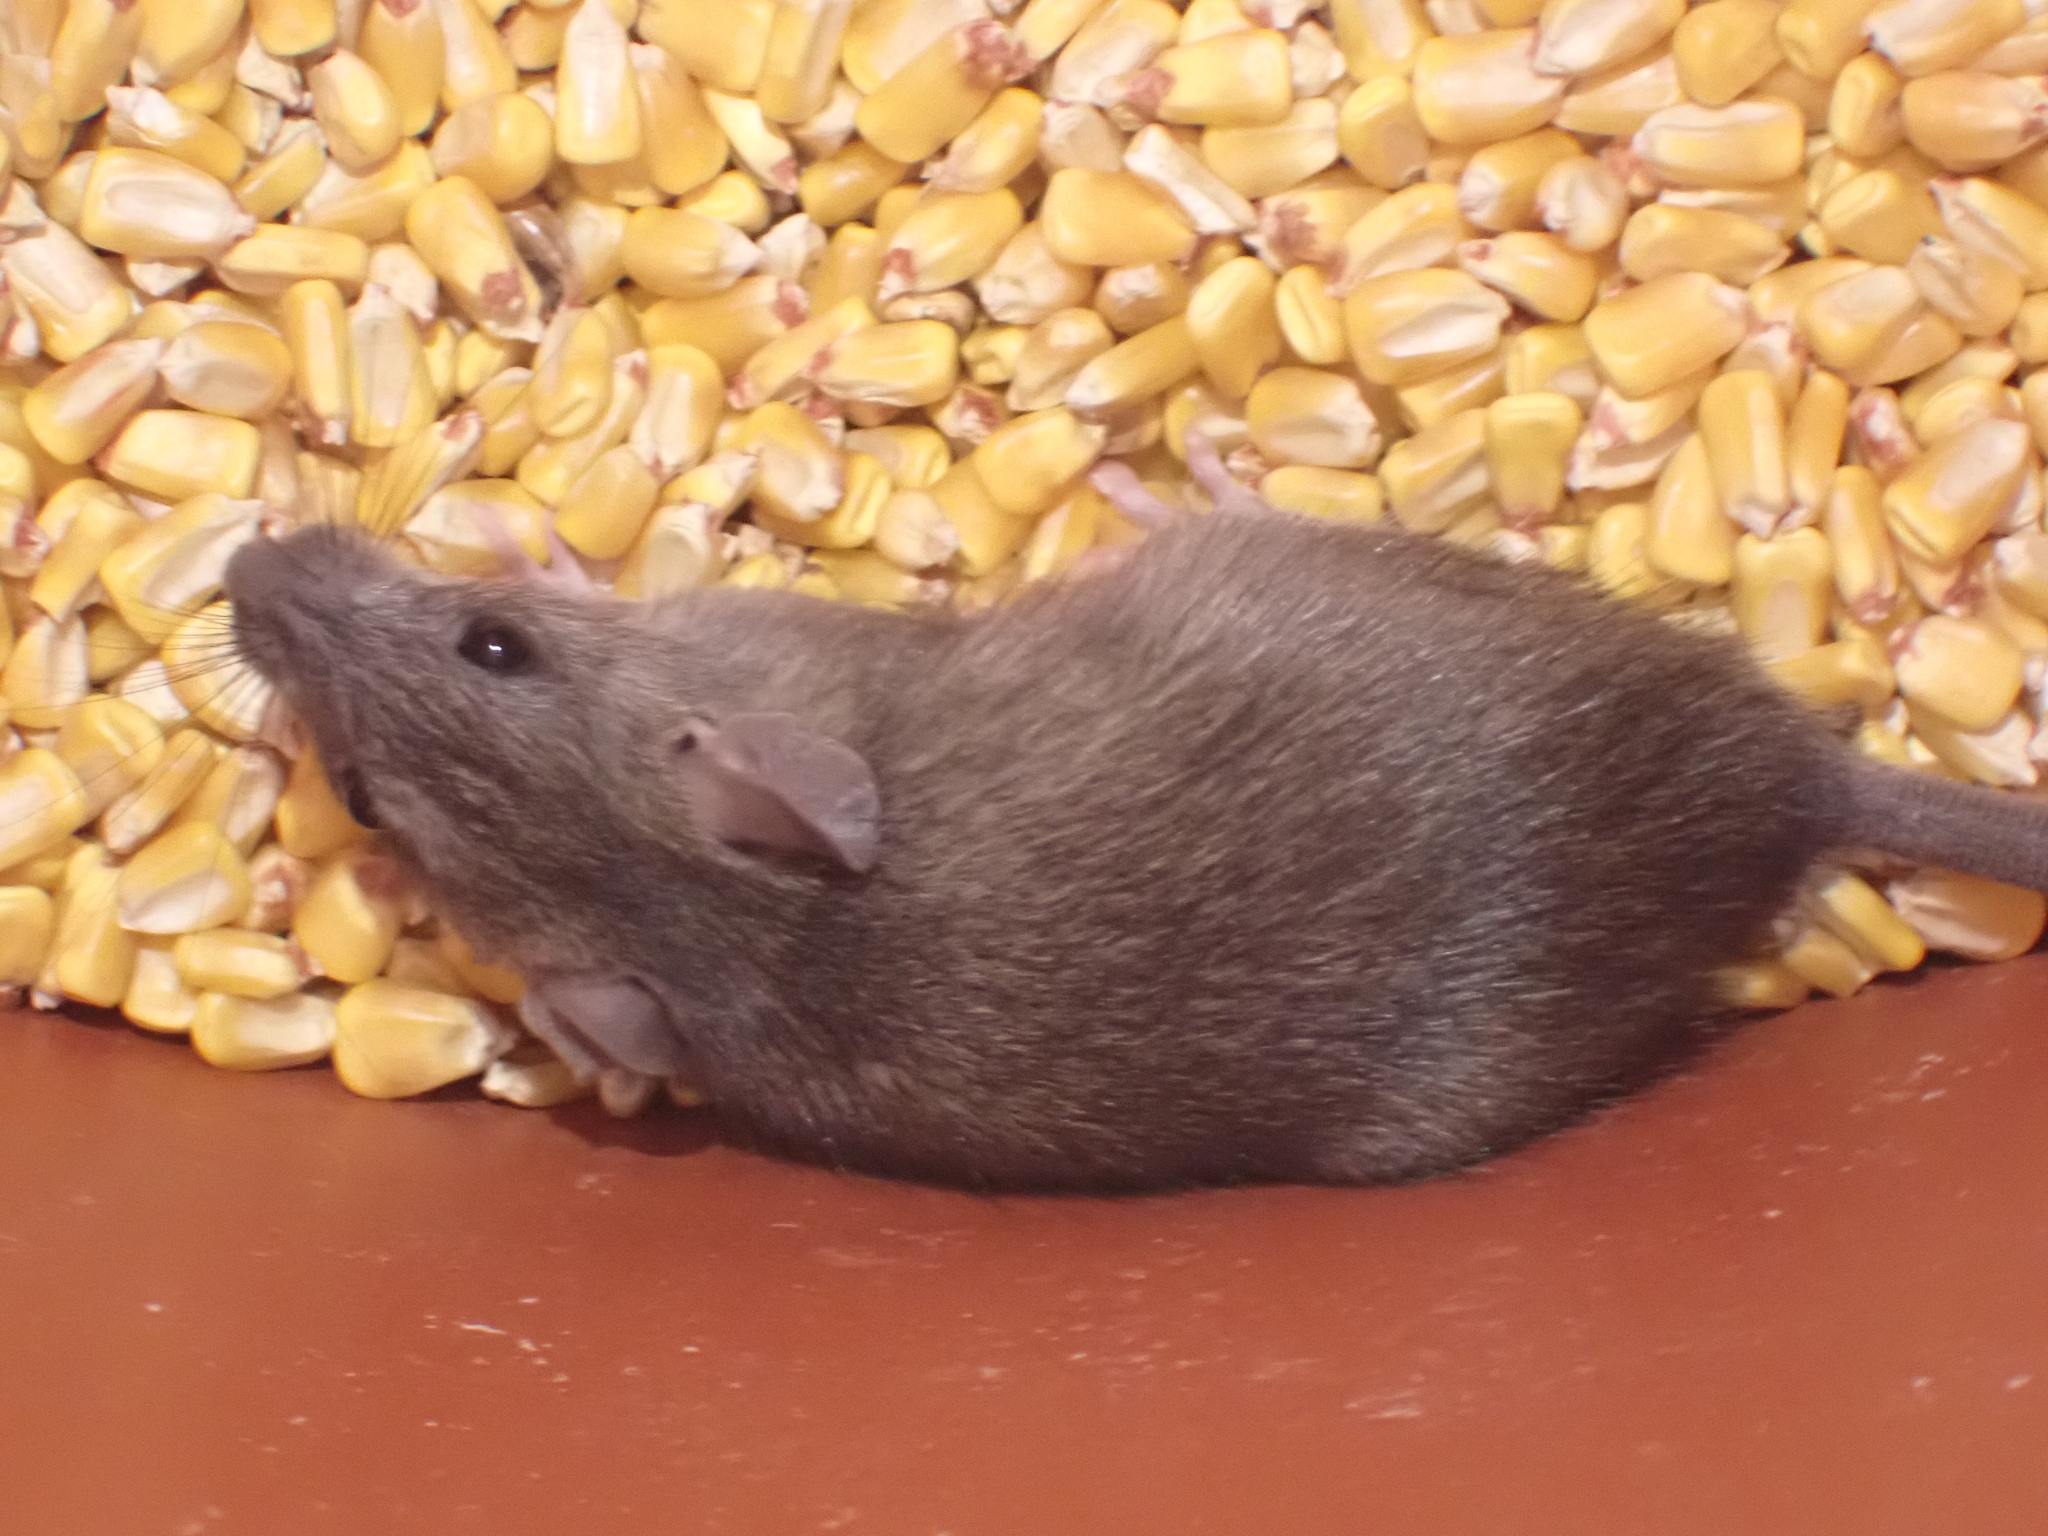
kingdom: Animalia
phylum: Chordata
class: Mammalia
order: Rodentia
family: Muridae
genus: Rattus
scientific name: Rattus rattus
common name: Black rat
